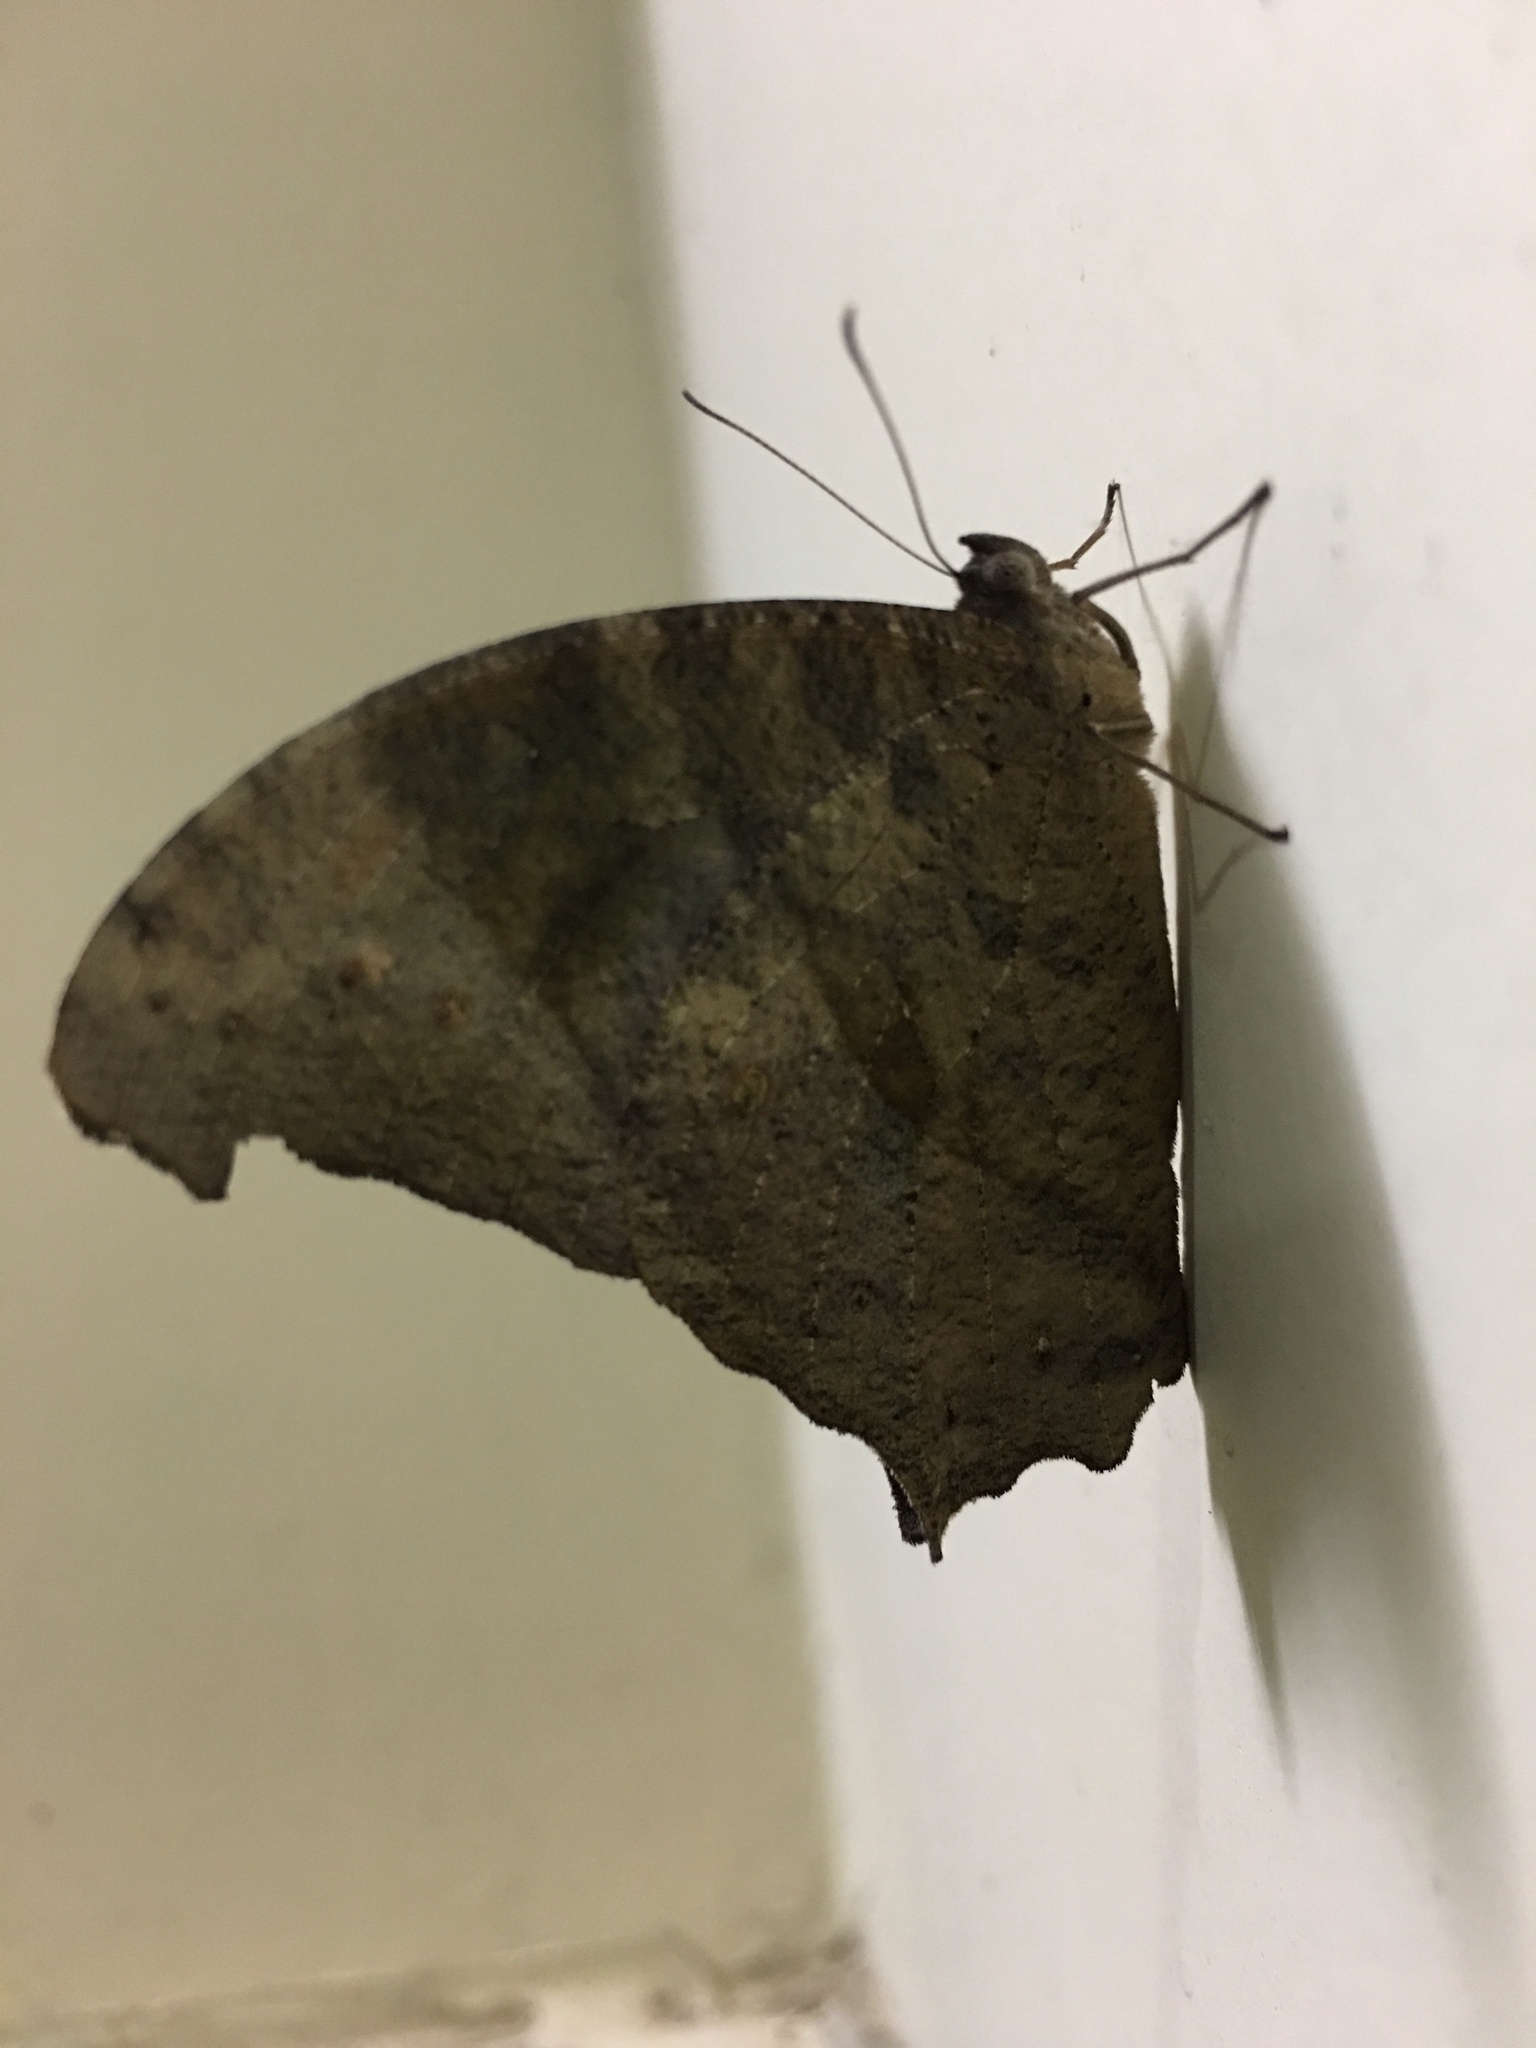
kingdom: Animalia
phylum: Arthropoda
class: Insecta
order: Lepidoptera
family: Nymphalidae
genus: Melanitis
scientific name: Melanitis leda
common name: Twilight brown
